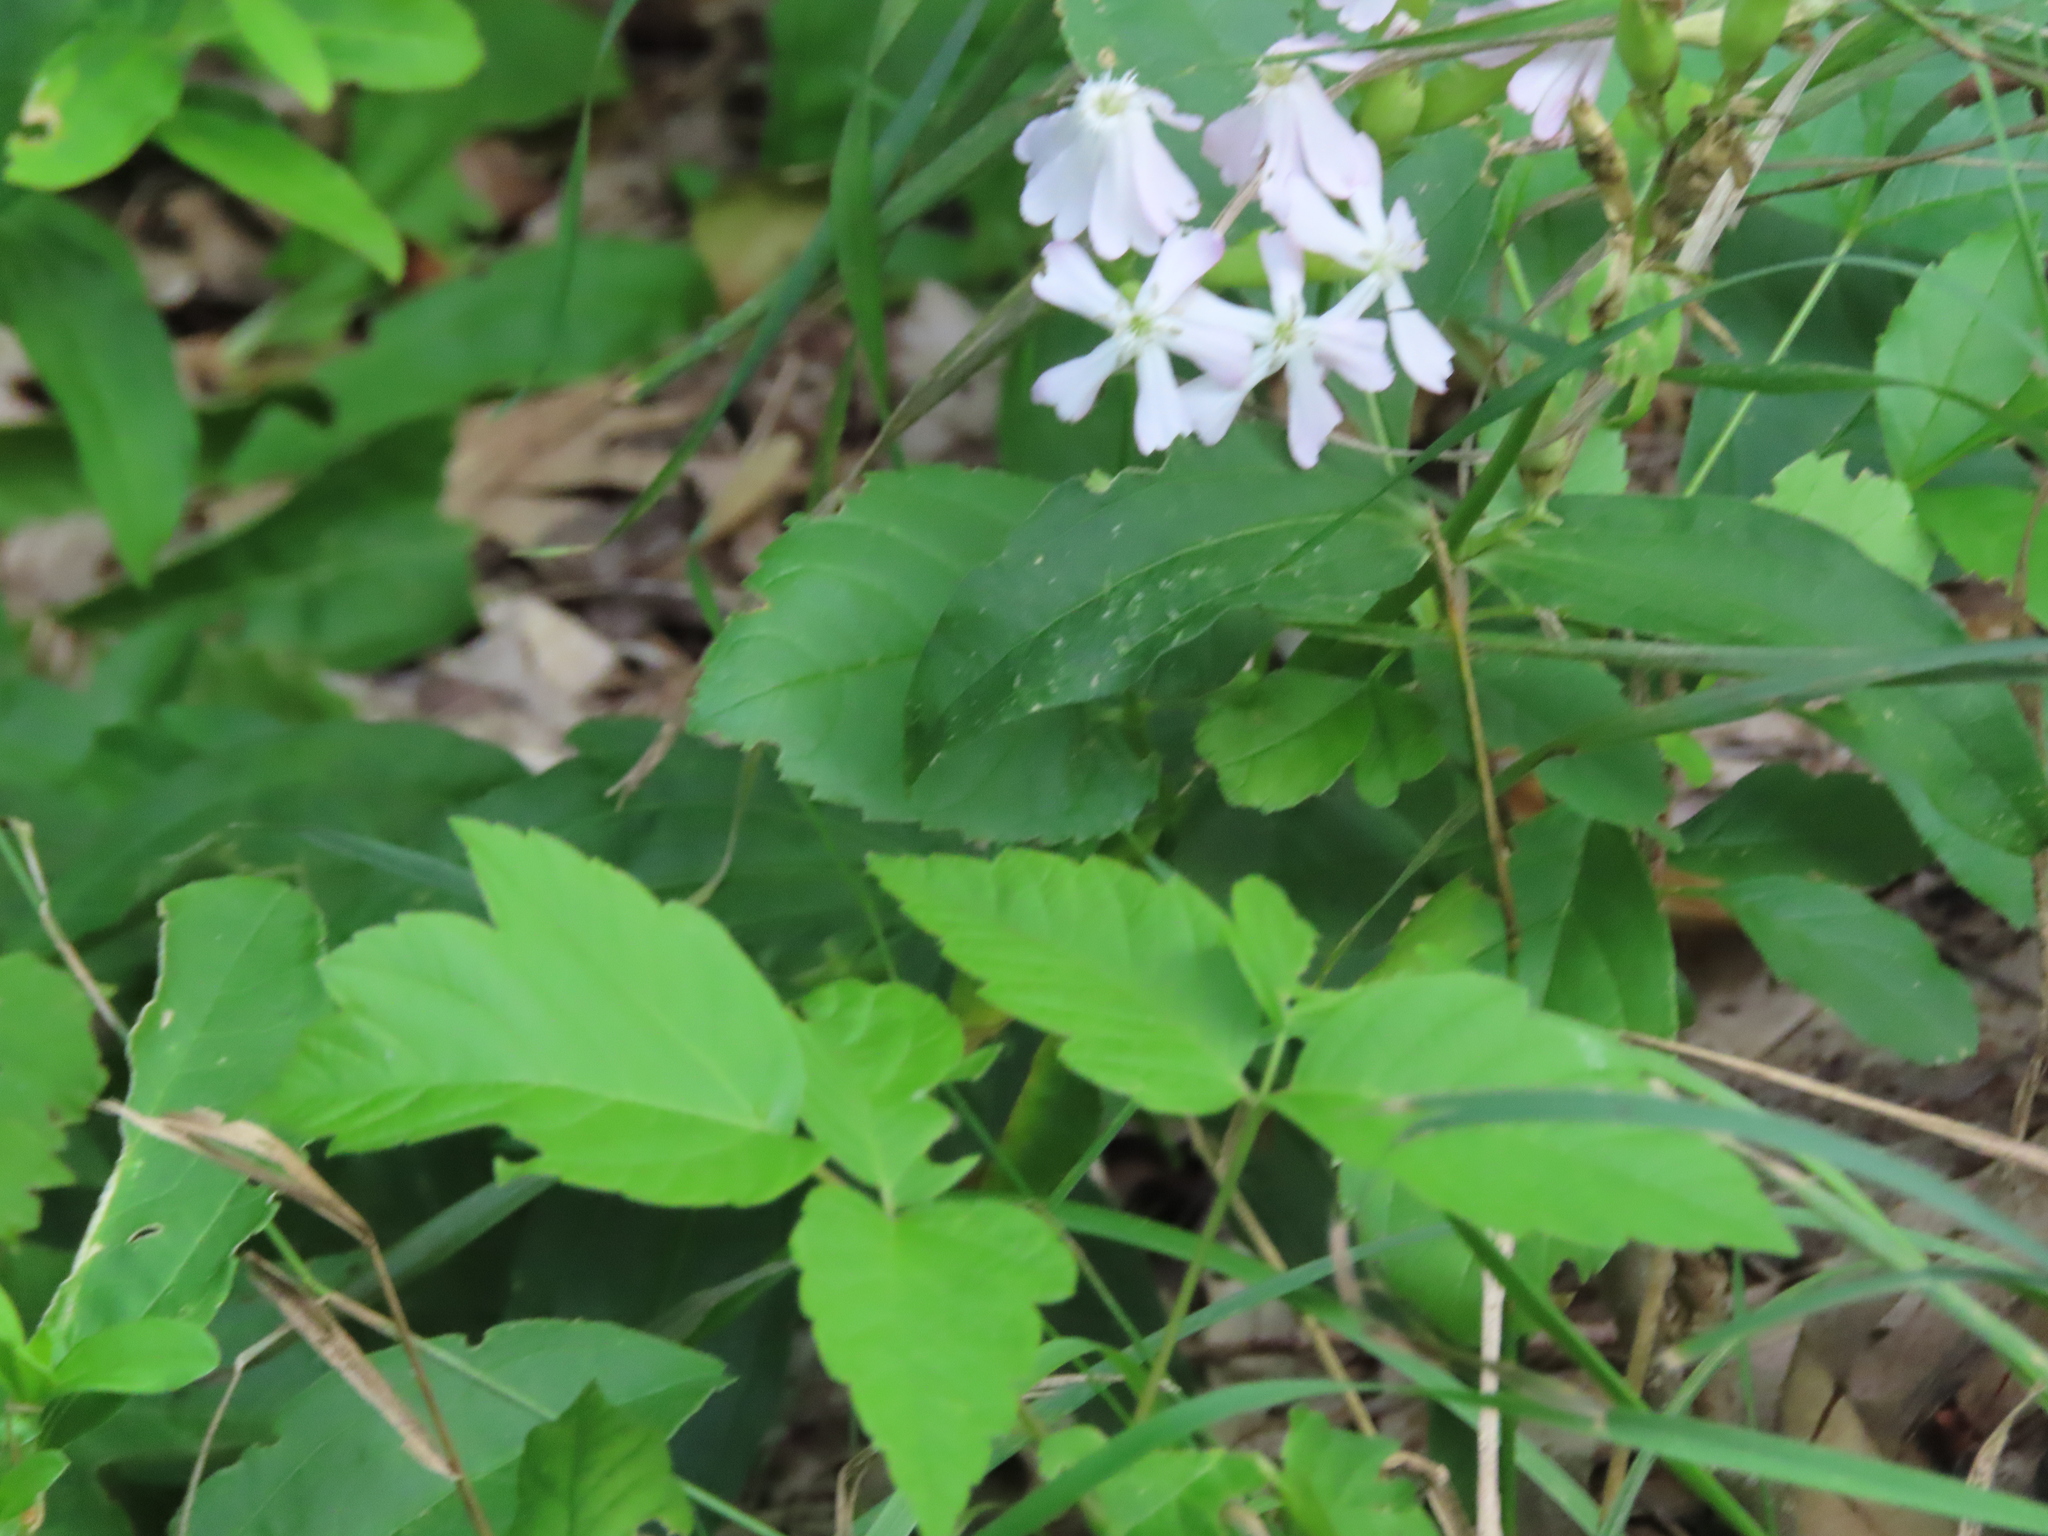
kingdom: Plantae
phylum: Tracheophyta
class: Magnoliopsida
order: Caryophyllales
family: Caryophyllaceae
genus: Saponaria
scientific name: Saponaria officinalis
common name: Soapwort
